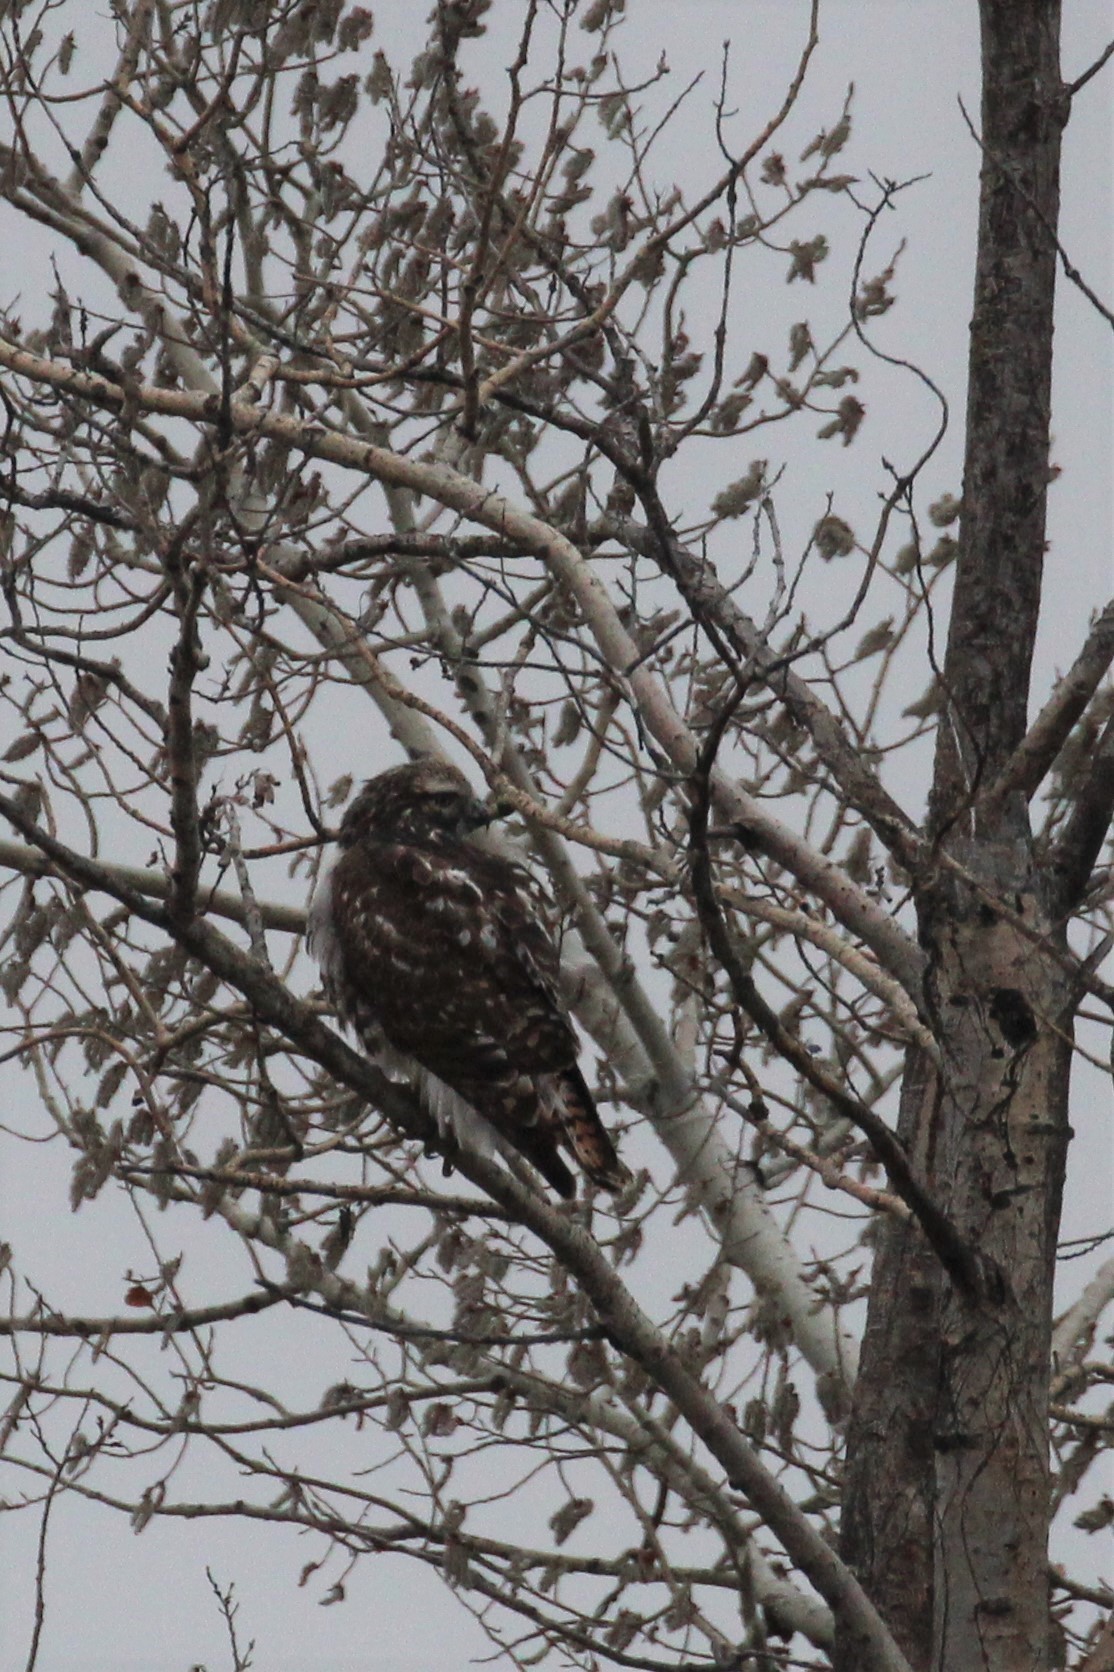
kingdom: Animalia
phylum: Chordata
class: Aves
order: Accipitriformes
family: Accipitridae
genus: Buteo
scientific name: Buteo jamaicensis
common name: Red-tailed hawk
